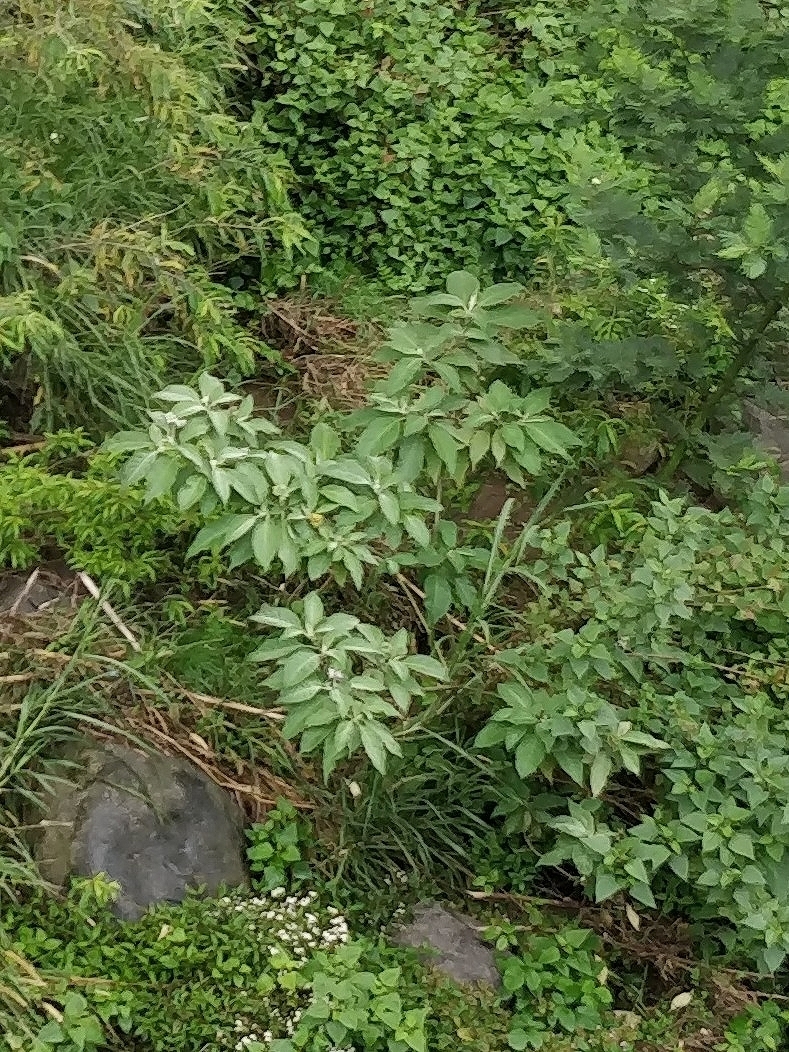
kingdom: Plantae
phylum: Tracheophyta
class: Magnoliopsida
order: Solanales
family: Solanaceae
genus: Solanum
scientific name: Solanum mauritianum
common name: Earleaf nightshade
